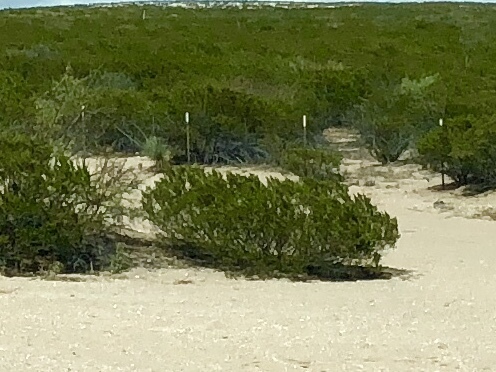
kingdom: Plantae
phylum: Tracheophyta
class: Magnoliopsida
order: Zygophyllales
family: Zygophyllaceae
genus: Larrea
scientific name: Larrea tridentata
